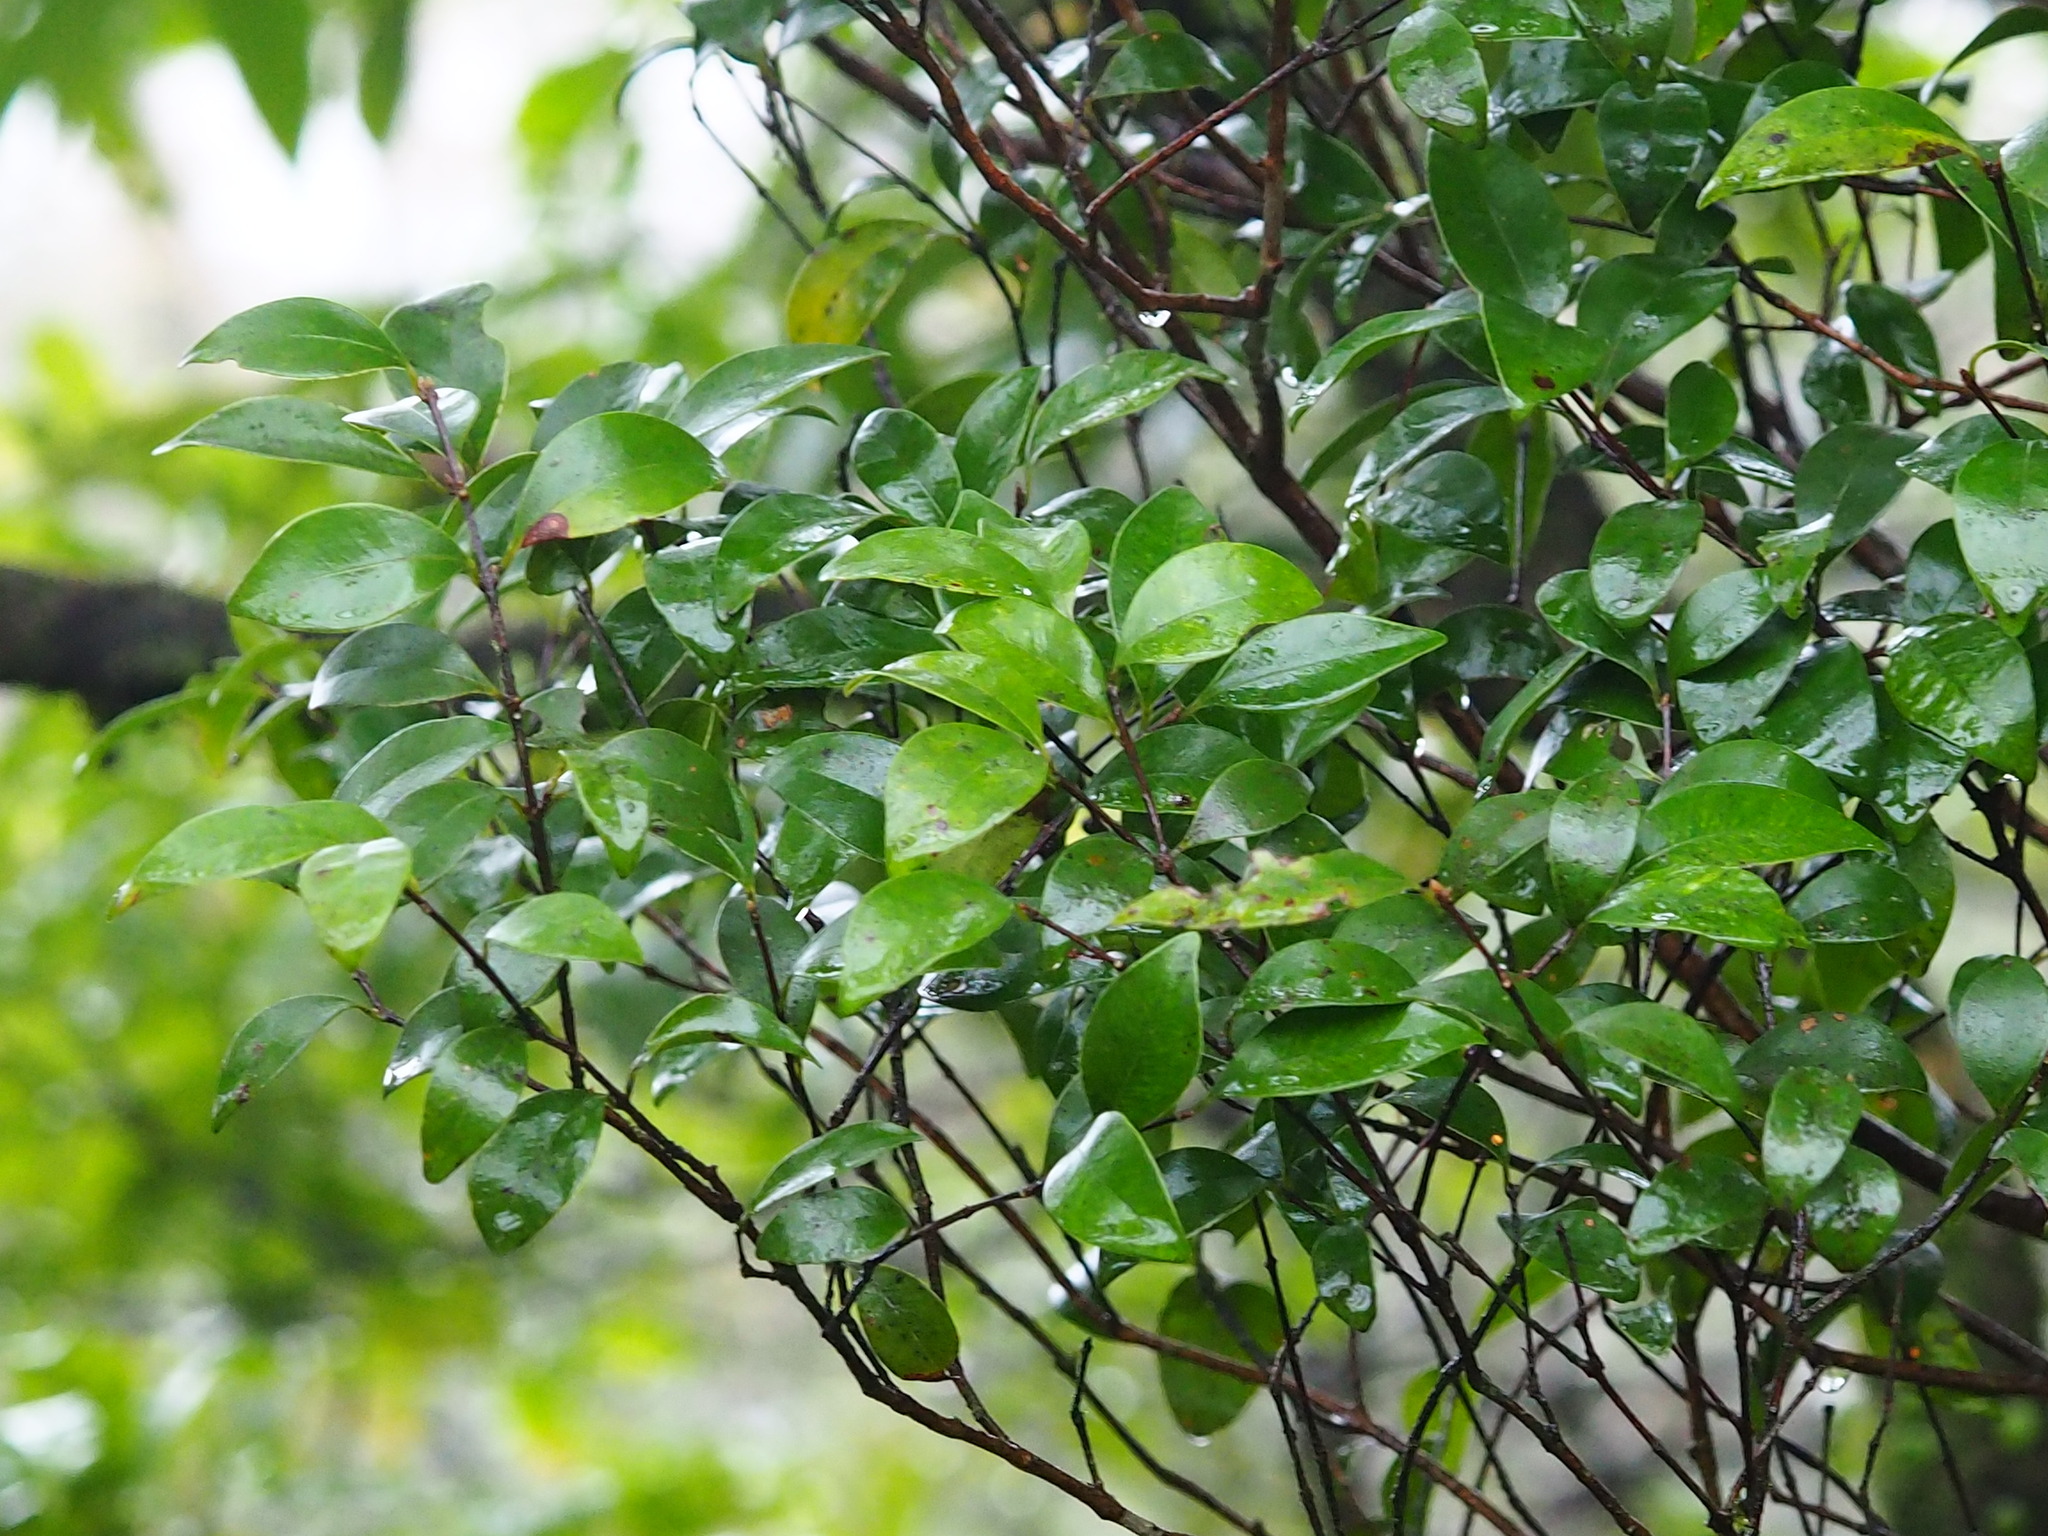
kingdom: Plantae
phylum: Tracheophyta
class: Magnoliopsida
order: Aquifoliales
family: Aquifoliaceae
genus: Ilex
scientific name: Ilex asprella
